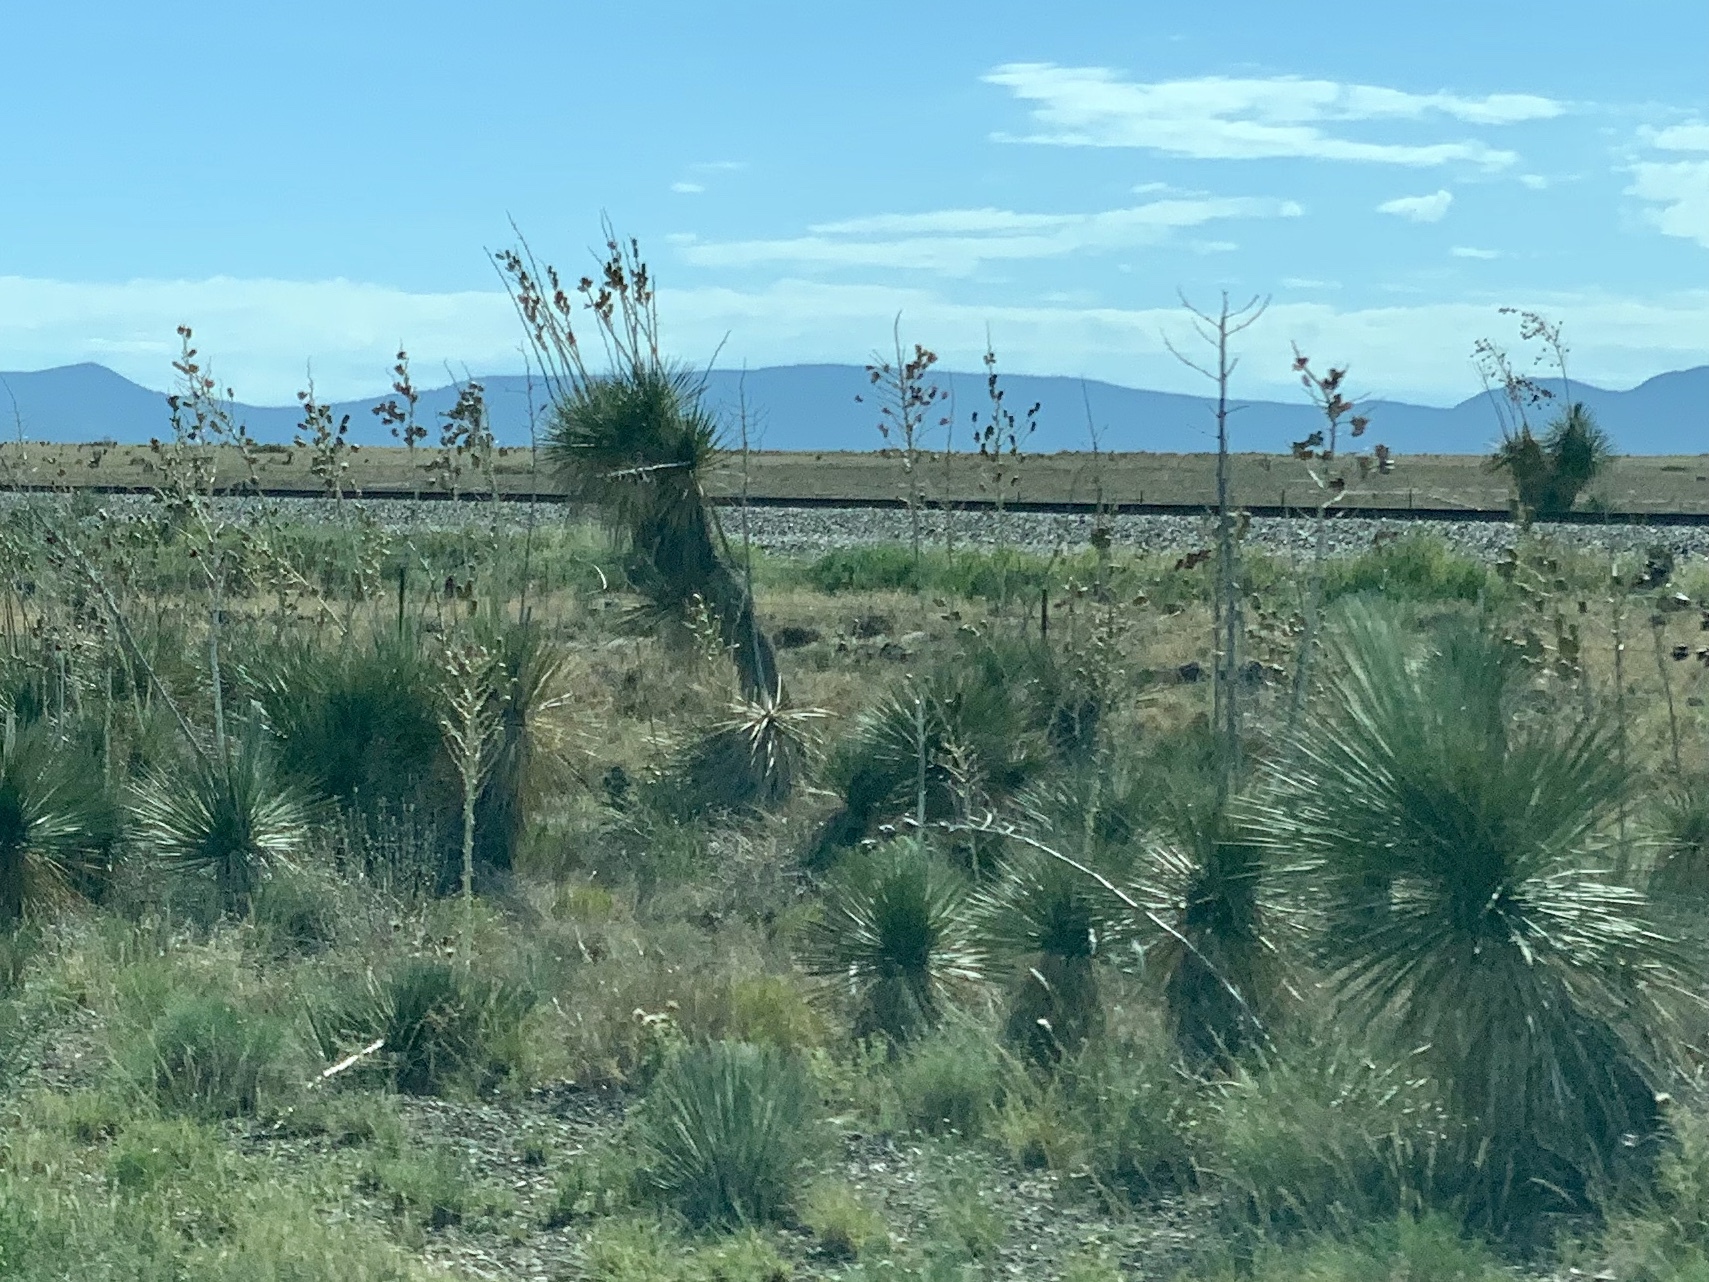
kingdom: Plantae
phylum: Tracheophyta
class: Liliopsida
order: Asparagales
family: Asparagaceae
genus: Yucca
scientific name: Yucca elata
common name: Palmella
